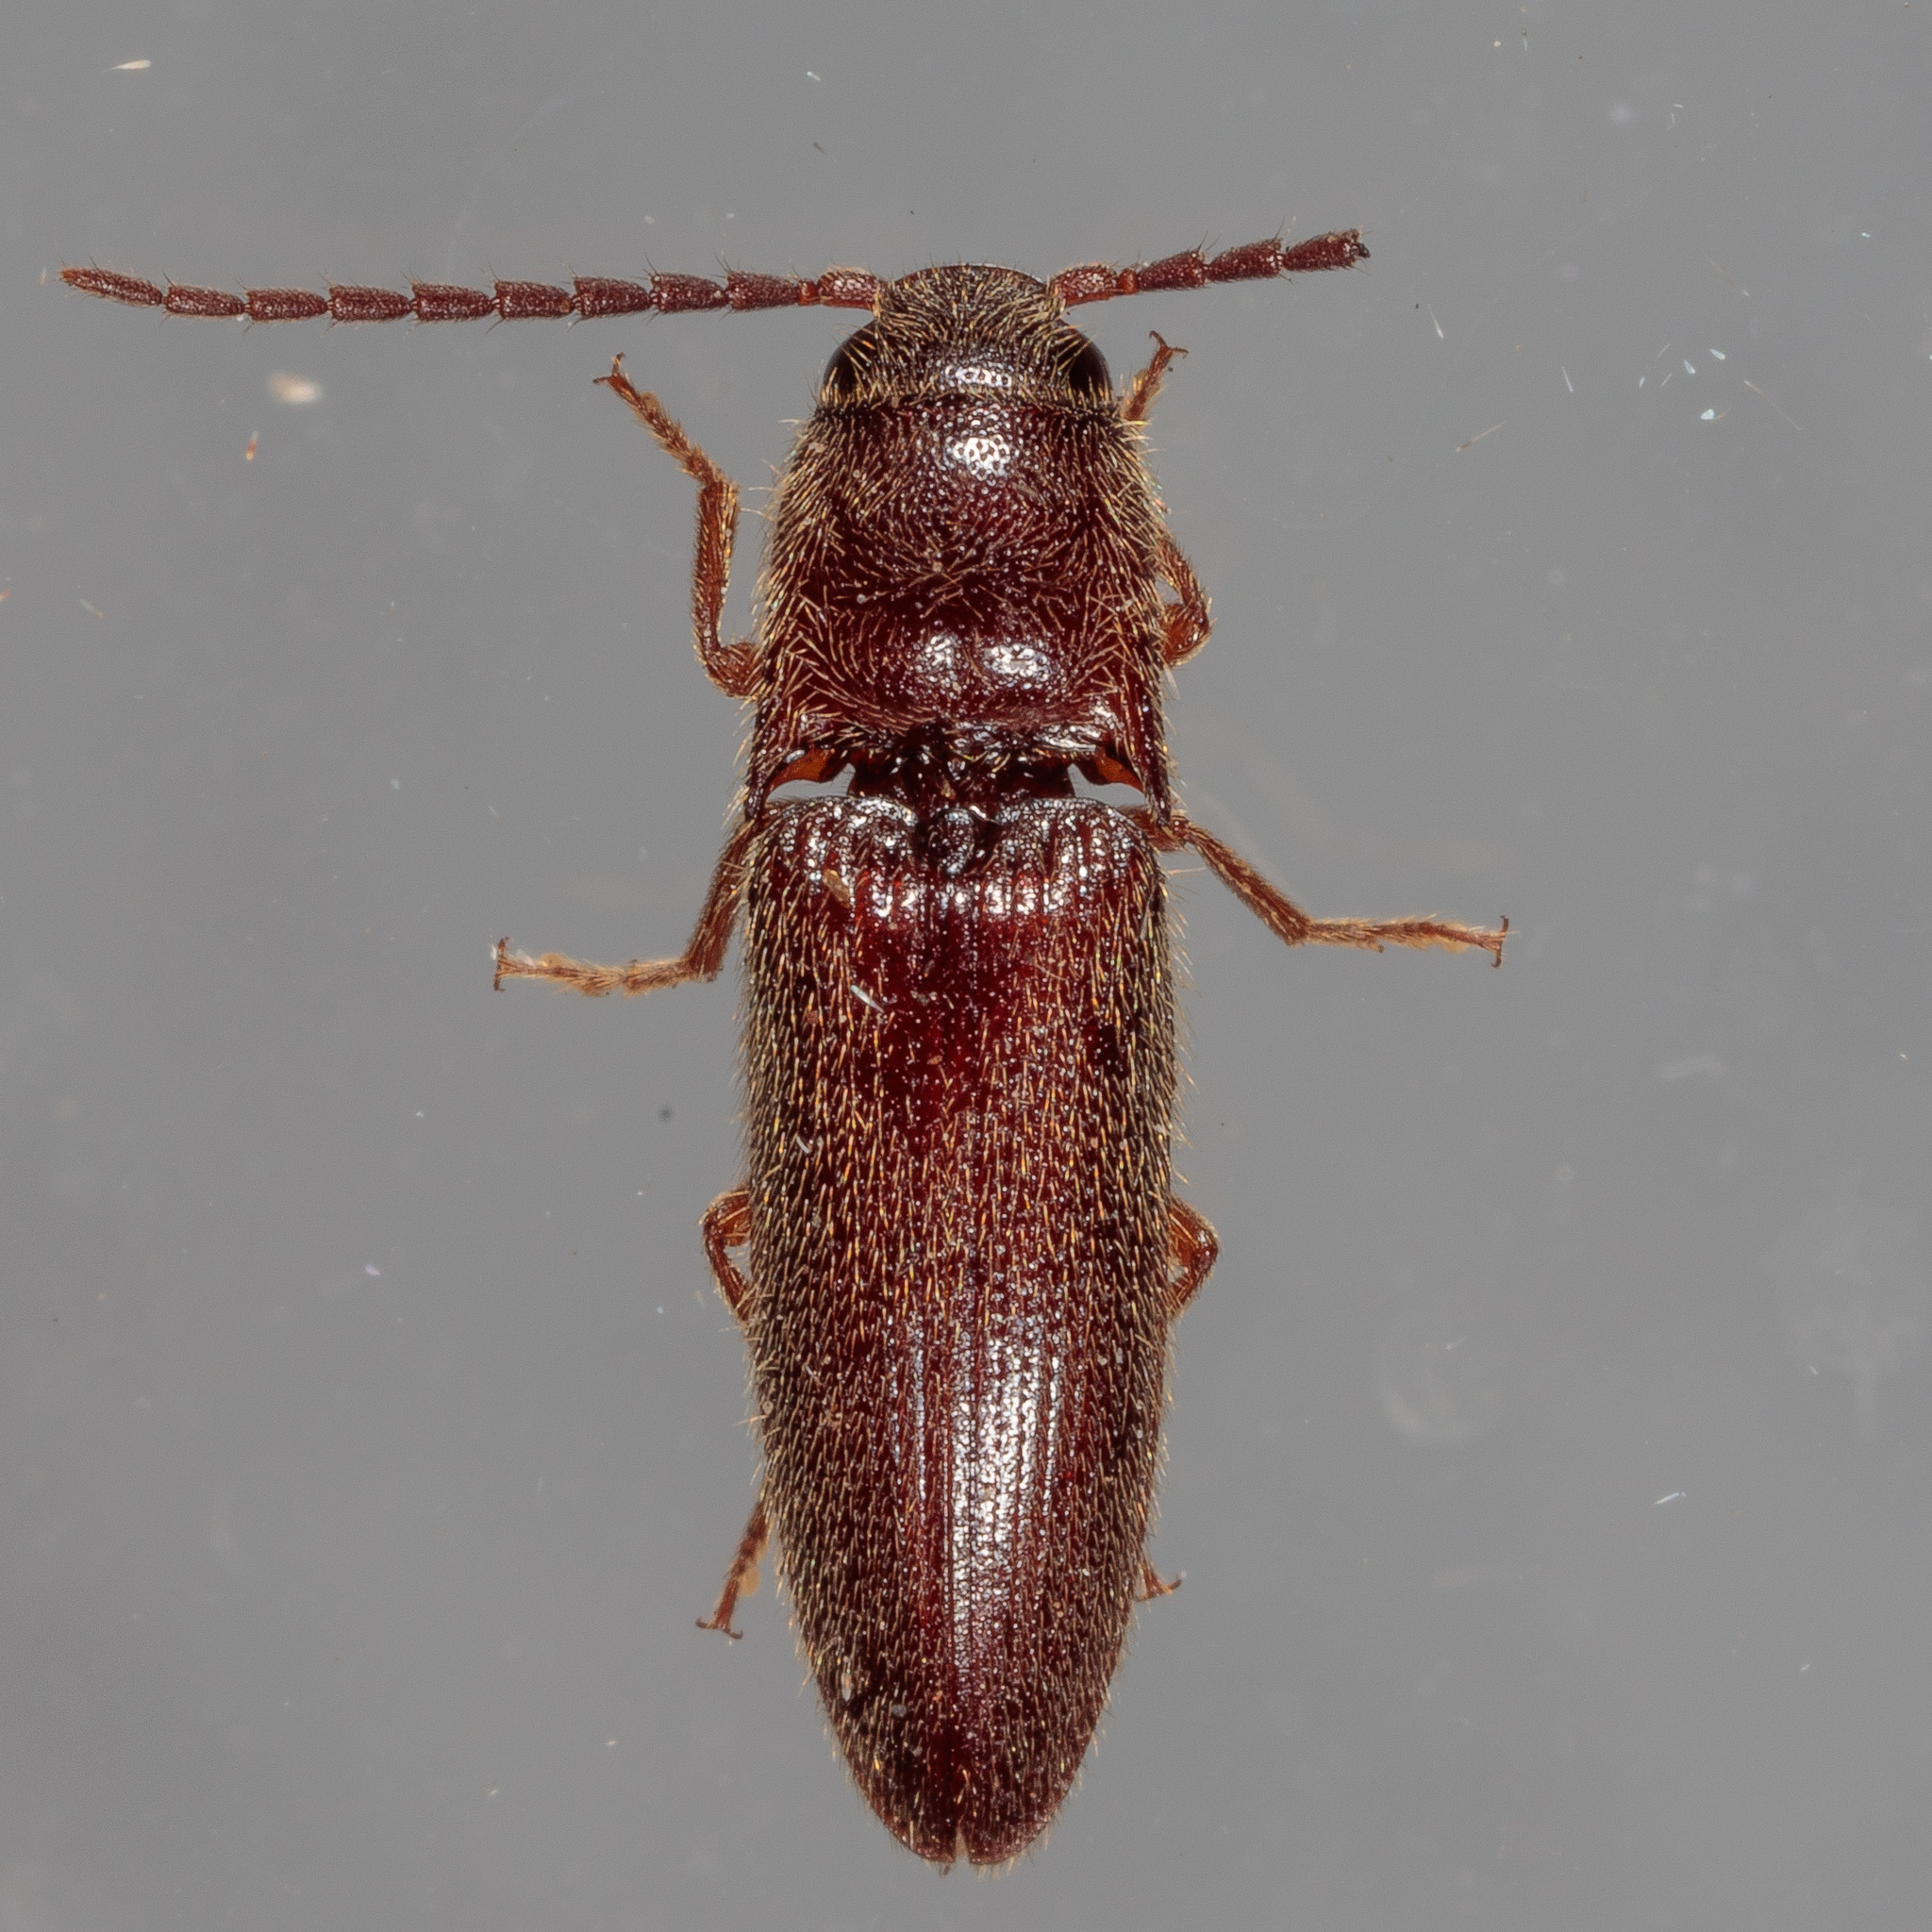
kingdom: Animalia
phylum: Arthropoda
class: Insecta
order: Coleoptera
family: Elateridae
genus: Dipropus
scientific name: Dipropus
